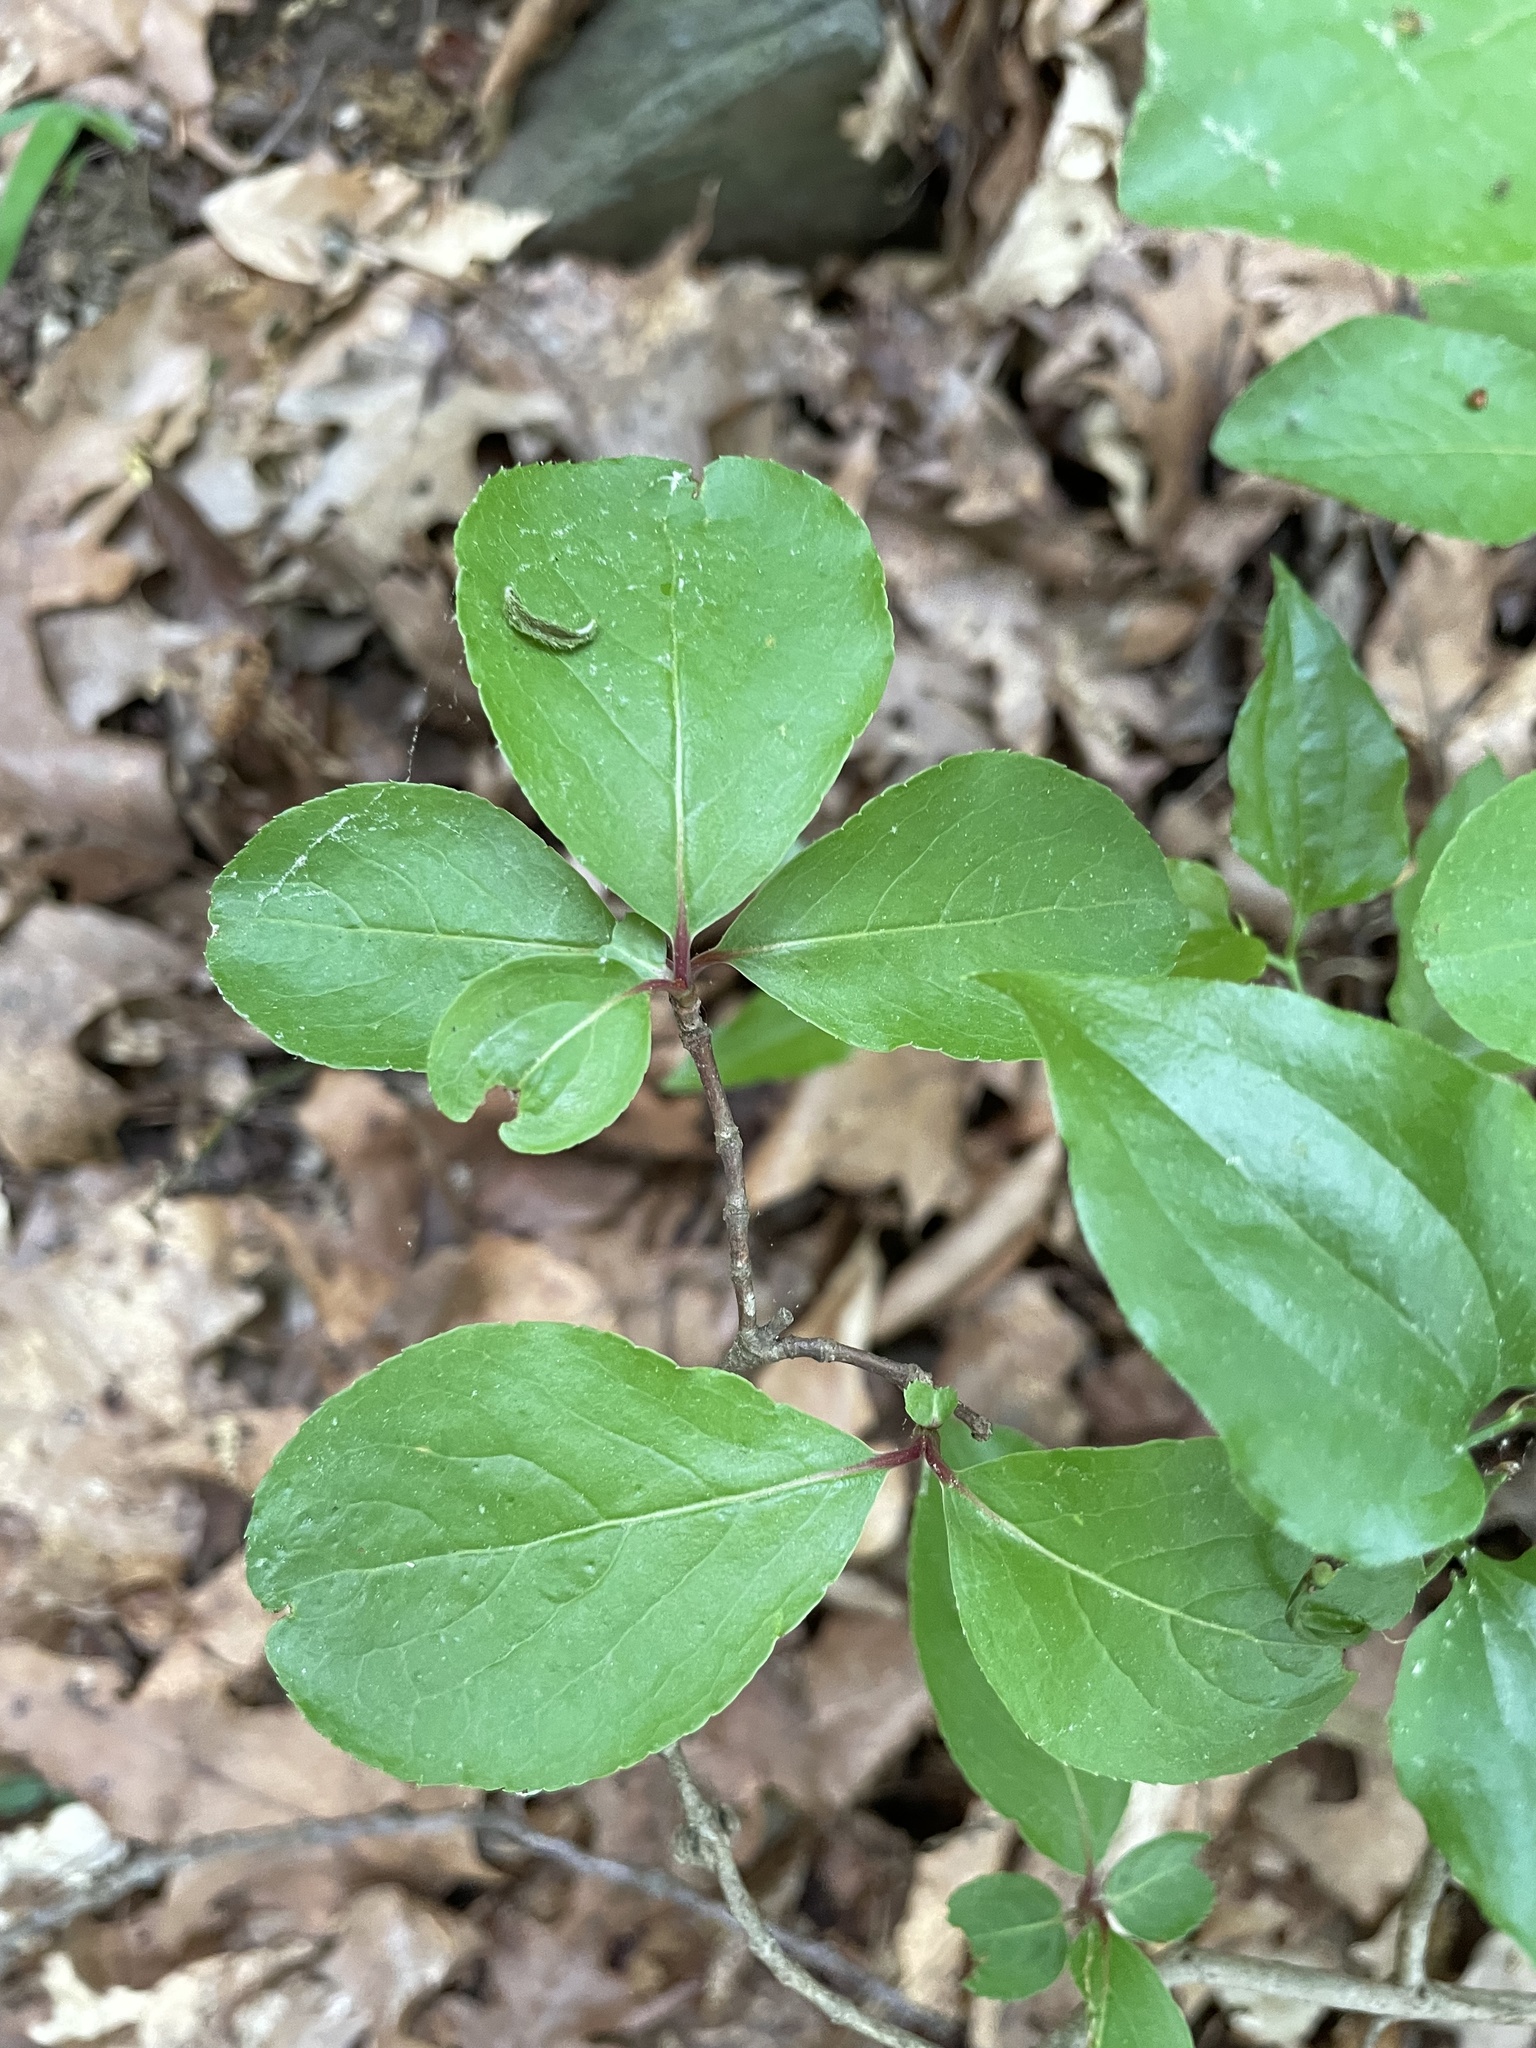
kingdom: Plantae
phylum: Tracheophyta
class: Magnoliopsida
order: Dipsacales
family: Viburnaceae
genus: Viburnum
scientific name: Viburnum rufidulum
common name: Blue haw
